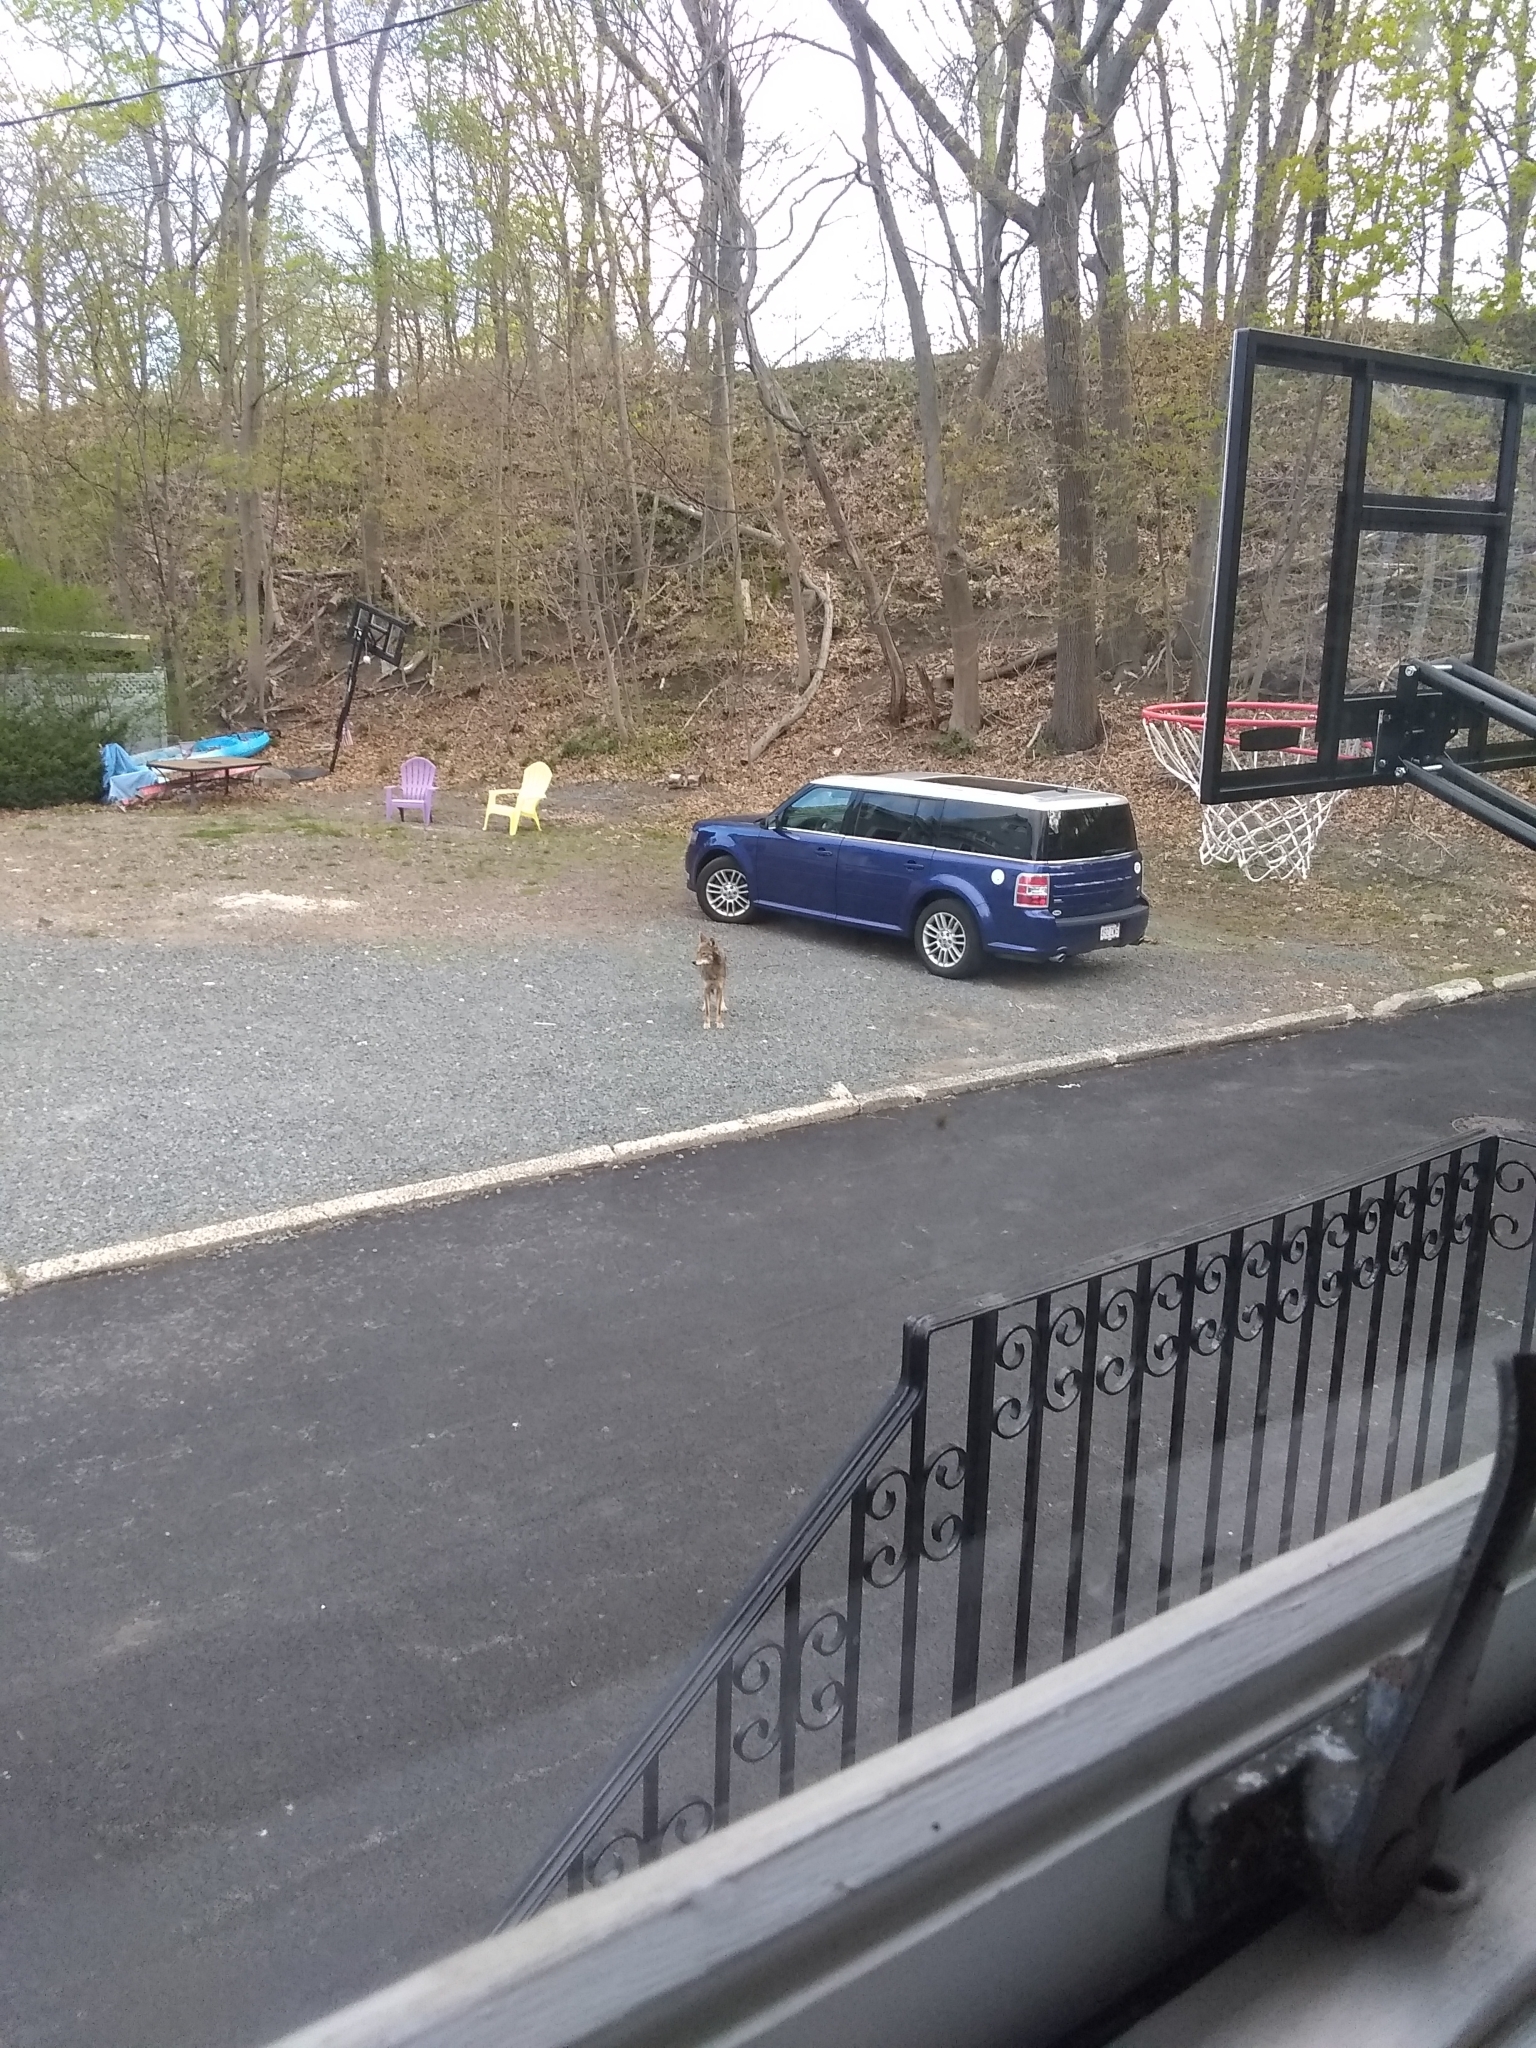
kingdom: Animalia
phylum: Chordata
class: Mammalia
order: Carnivora
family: Canidae
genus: Canis
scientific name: Canis latrans
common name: Coyote
